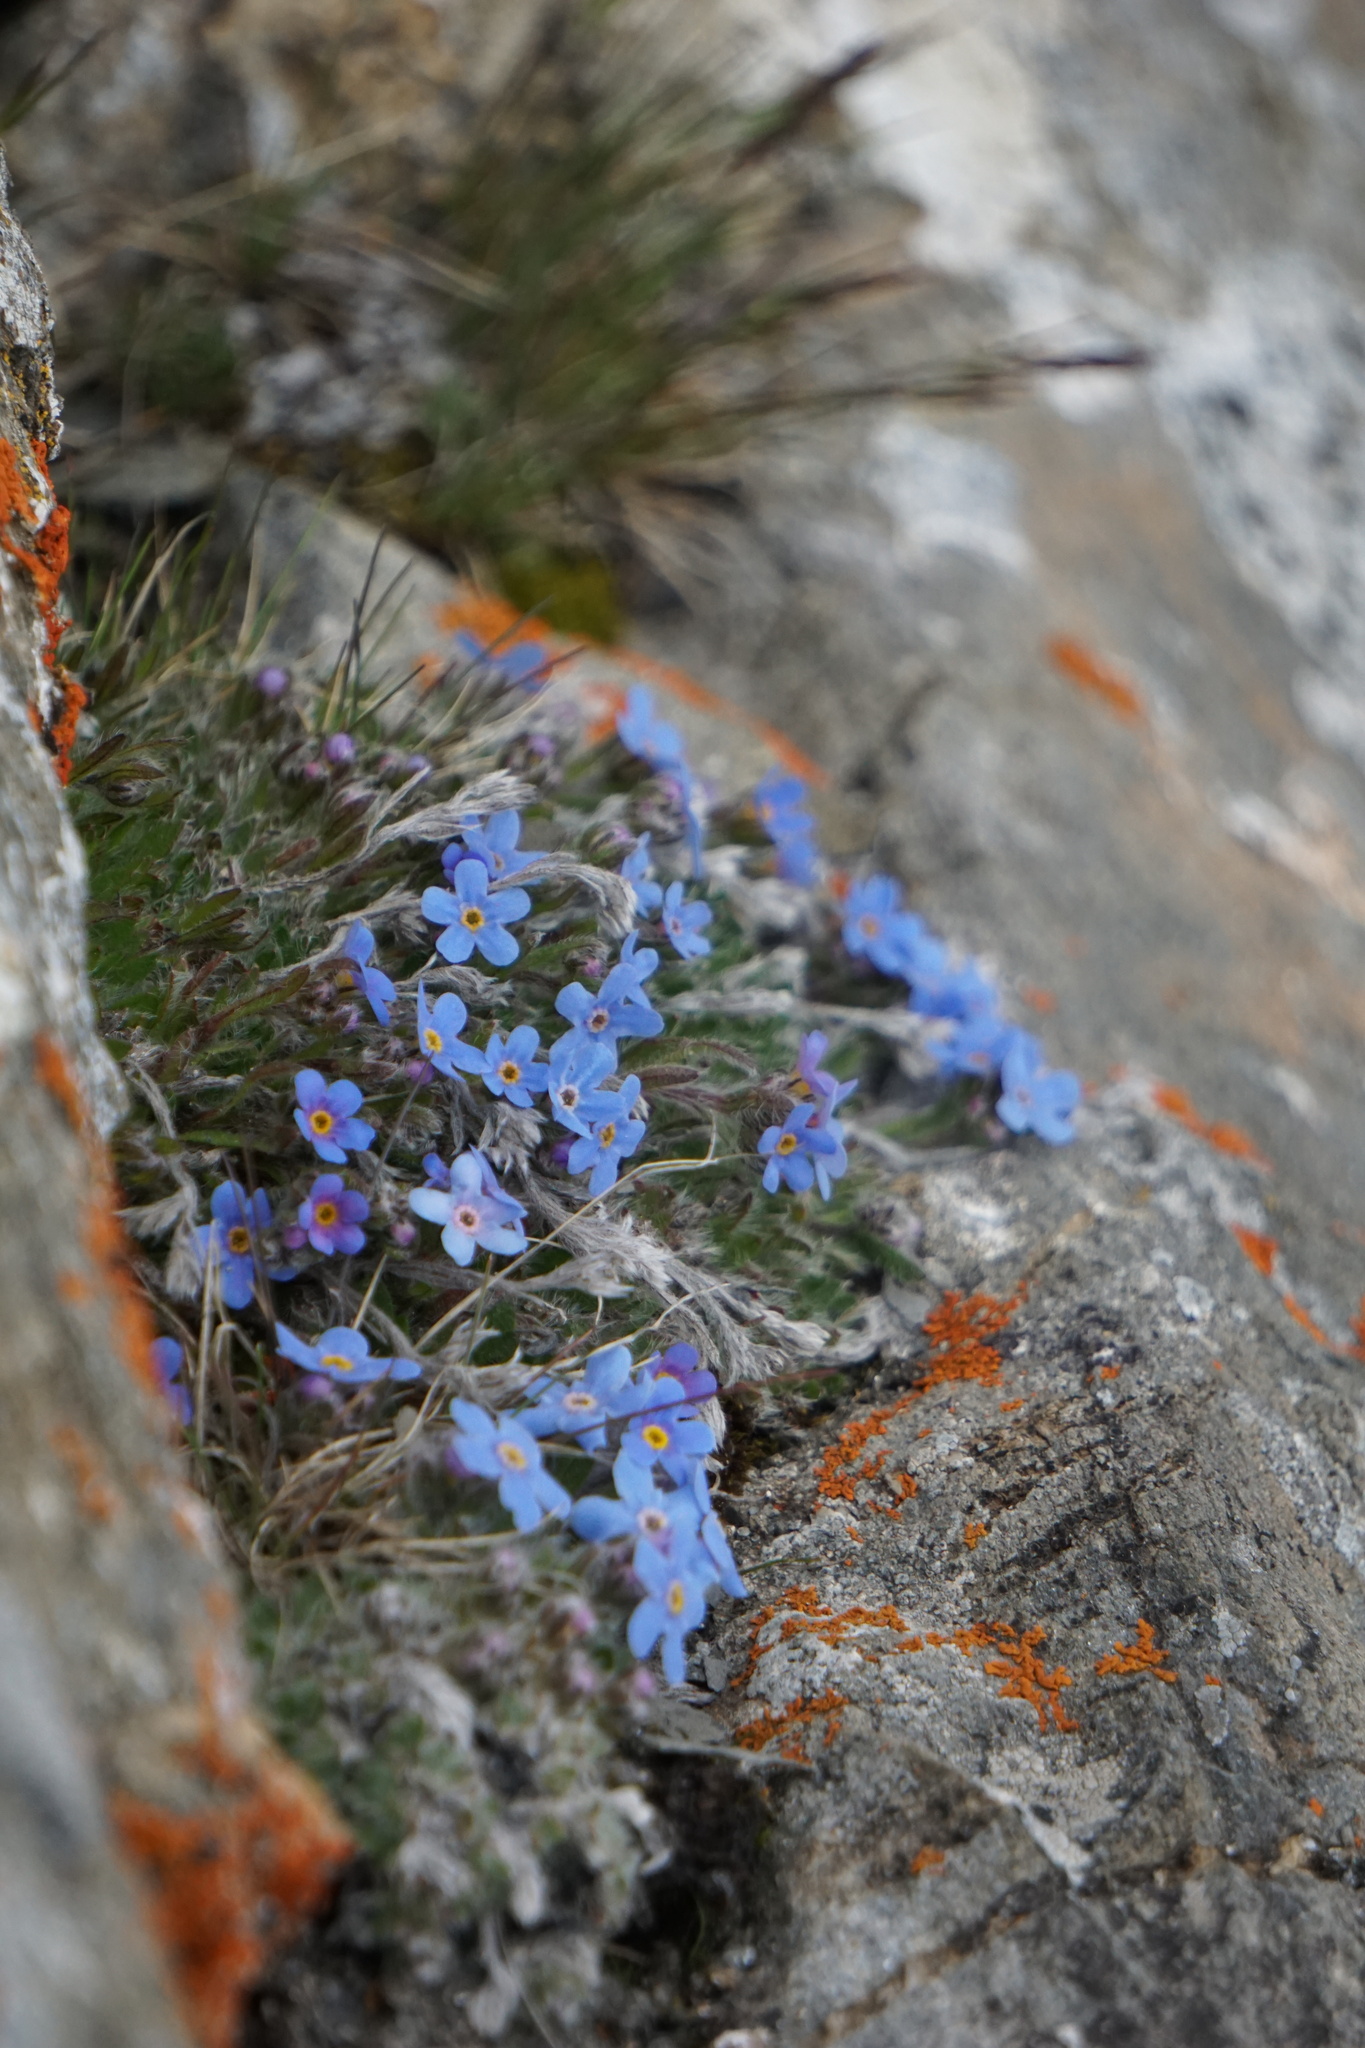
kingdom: Plantae
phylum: Tracheophyta
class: Magnoliopsida
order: Boraginales
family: Boraginaceae
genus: Eritrichium
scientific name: Eritrichium nanum
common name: King-of-the-alps
